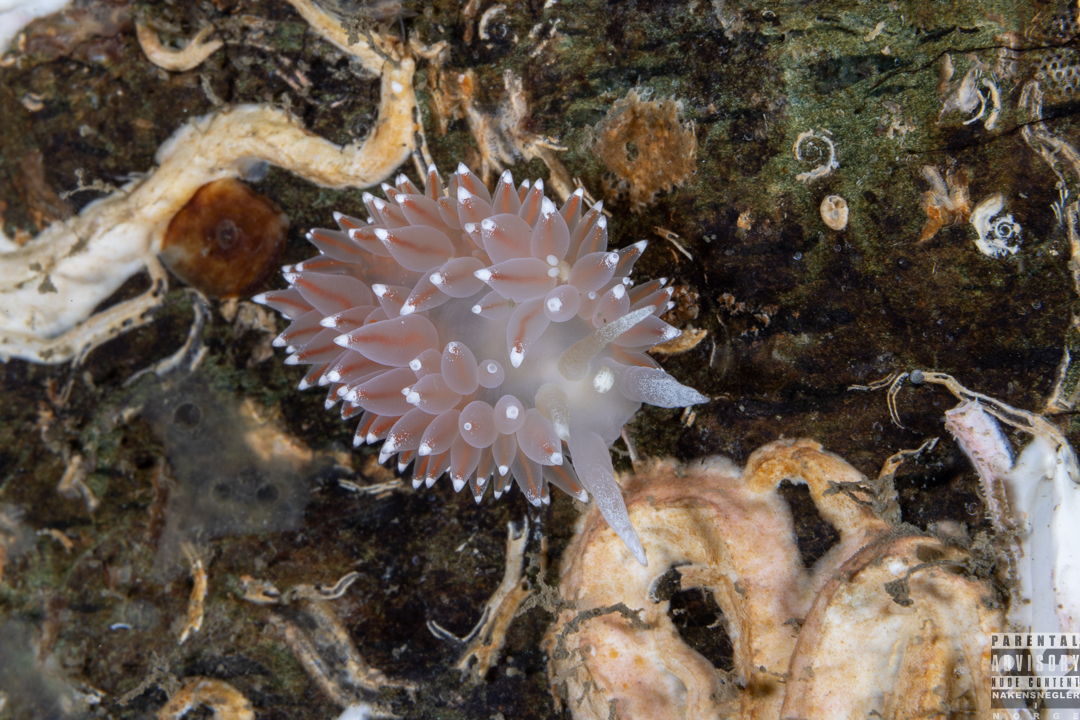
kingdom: Animalia
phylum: Mollusca
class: Gastropoda
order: Nudibranchia
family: Coryphellidae
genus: Coryphella
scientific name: Coryphella nobilis
